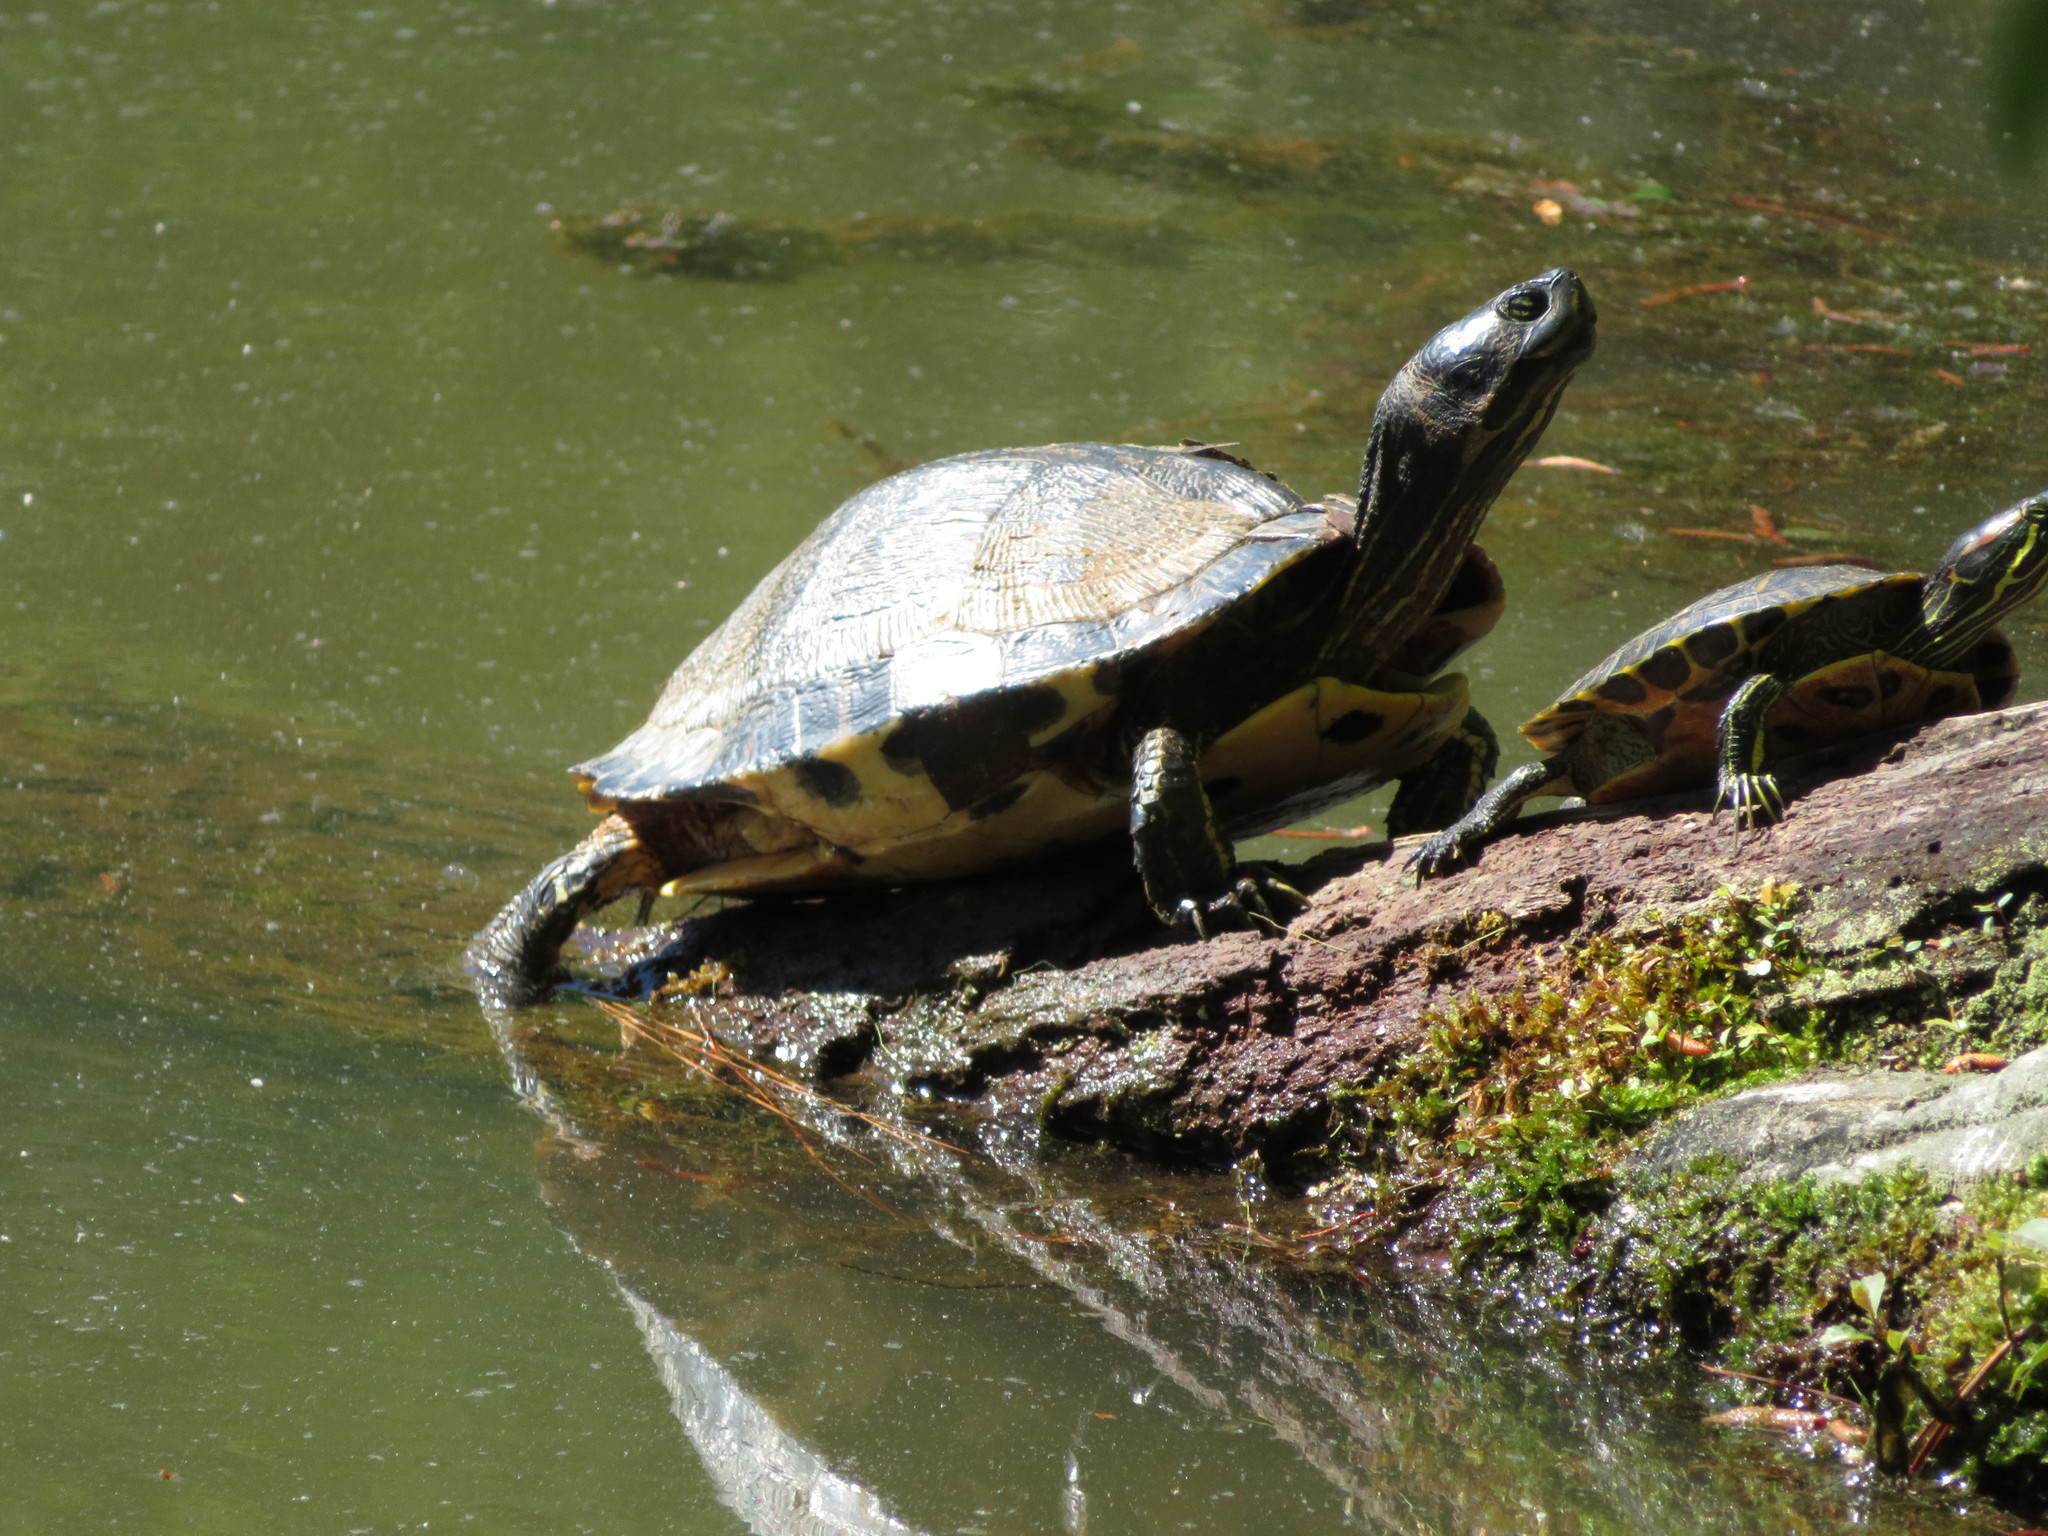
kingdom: Animalia
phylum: Chordata
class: Testudines
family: Emydidae
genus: Trachemys
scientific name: Trachemys scripta
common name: Slider
